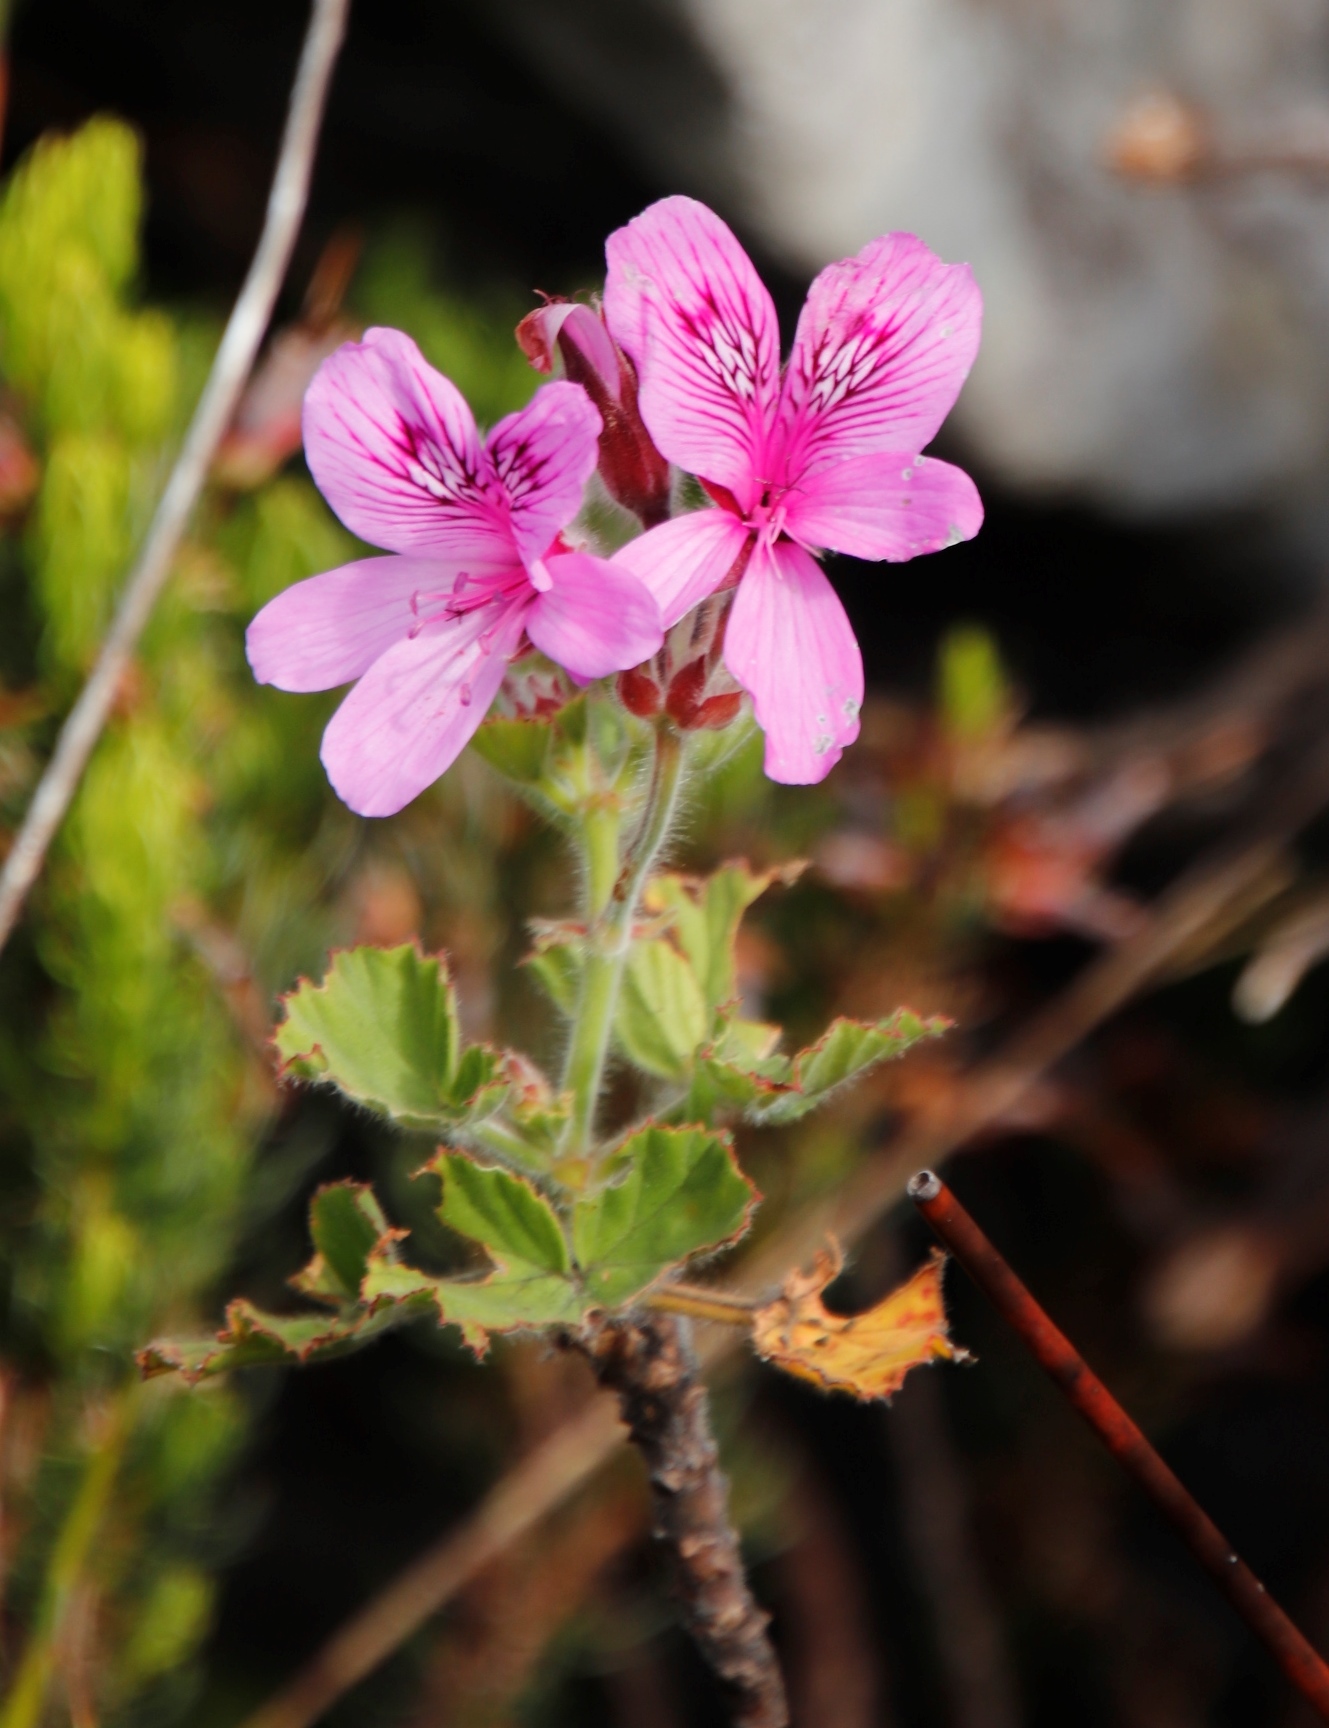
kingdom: Plantae
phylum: Tracheophyta
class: Magnoliopsida
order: Geraniales
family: Geraniaceae
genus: Pelargonium
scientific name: Pelargonium cucullatum
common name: Tree pelargonium
